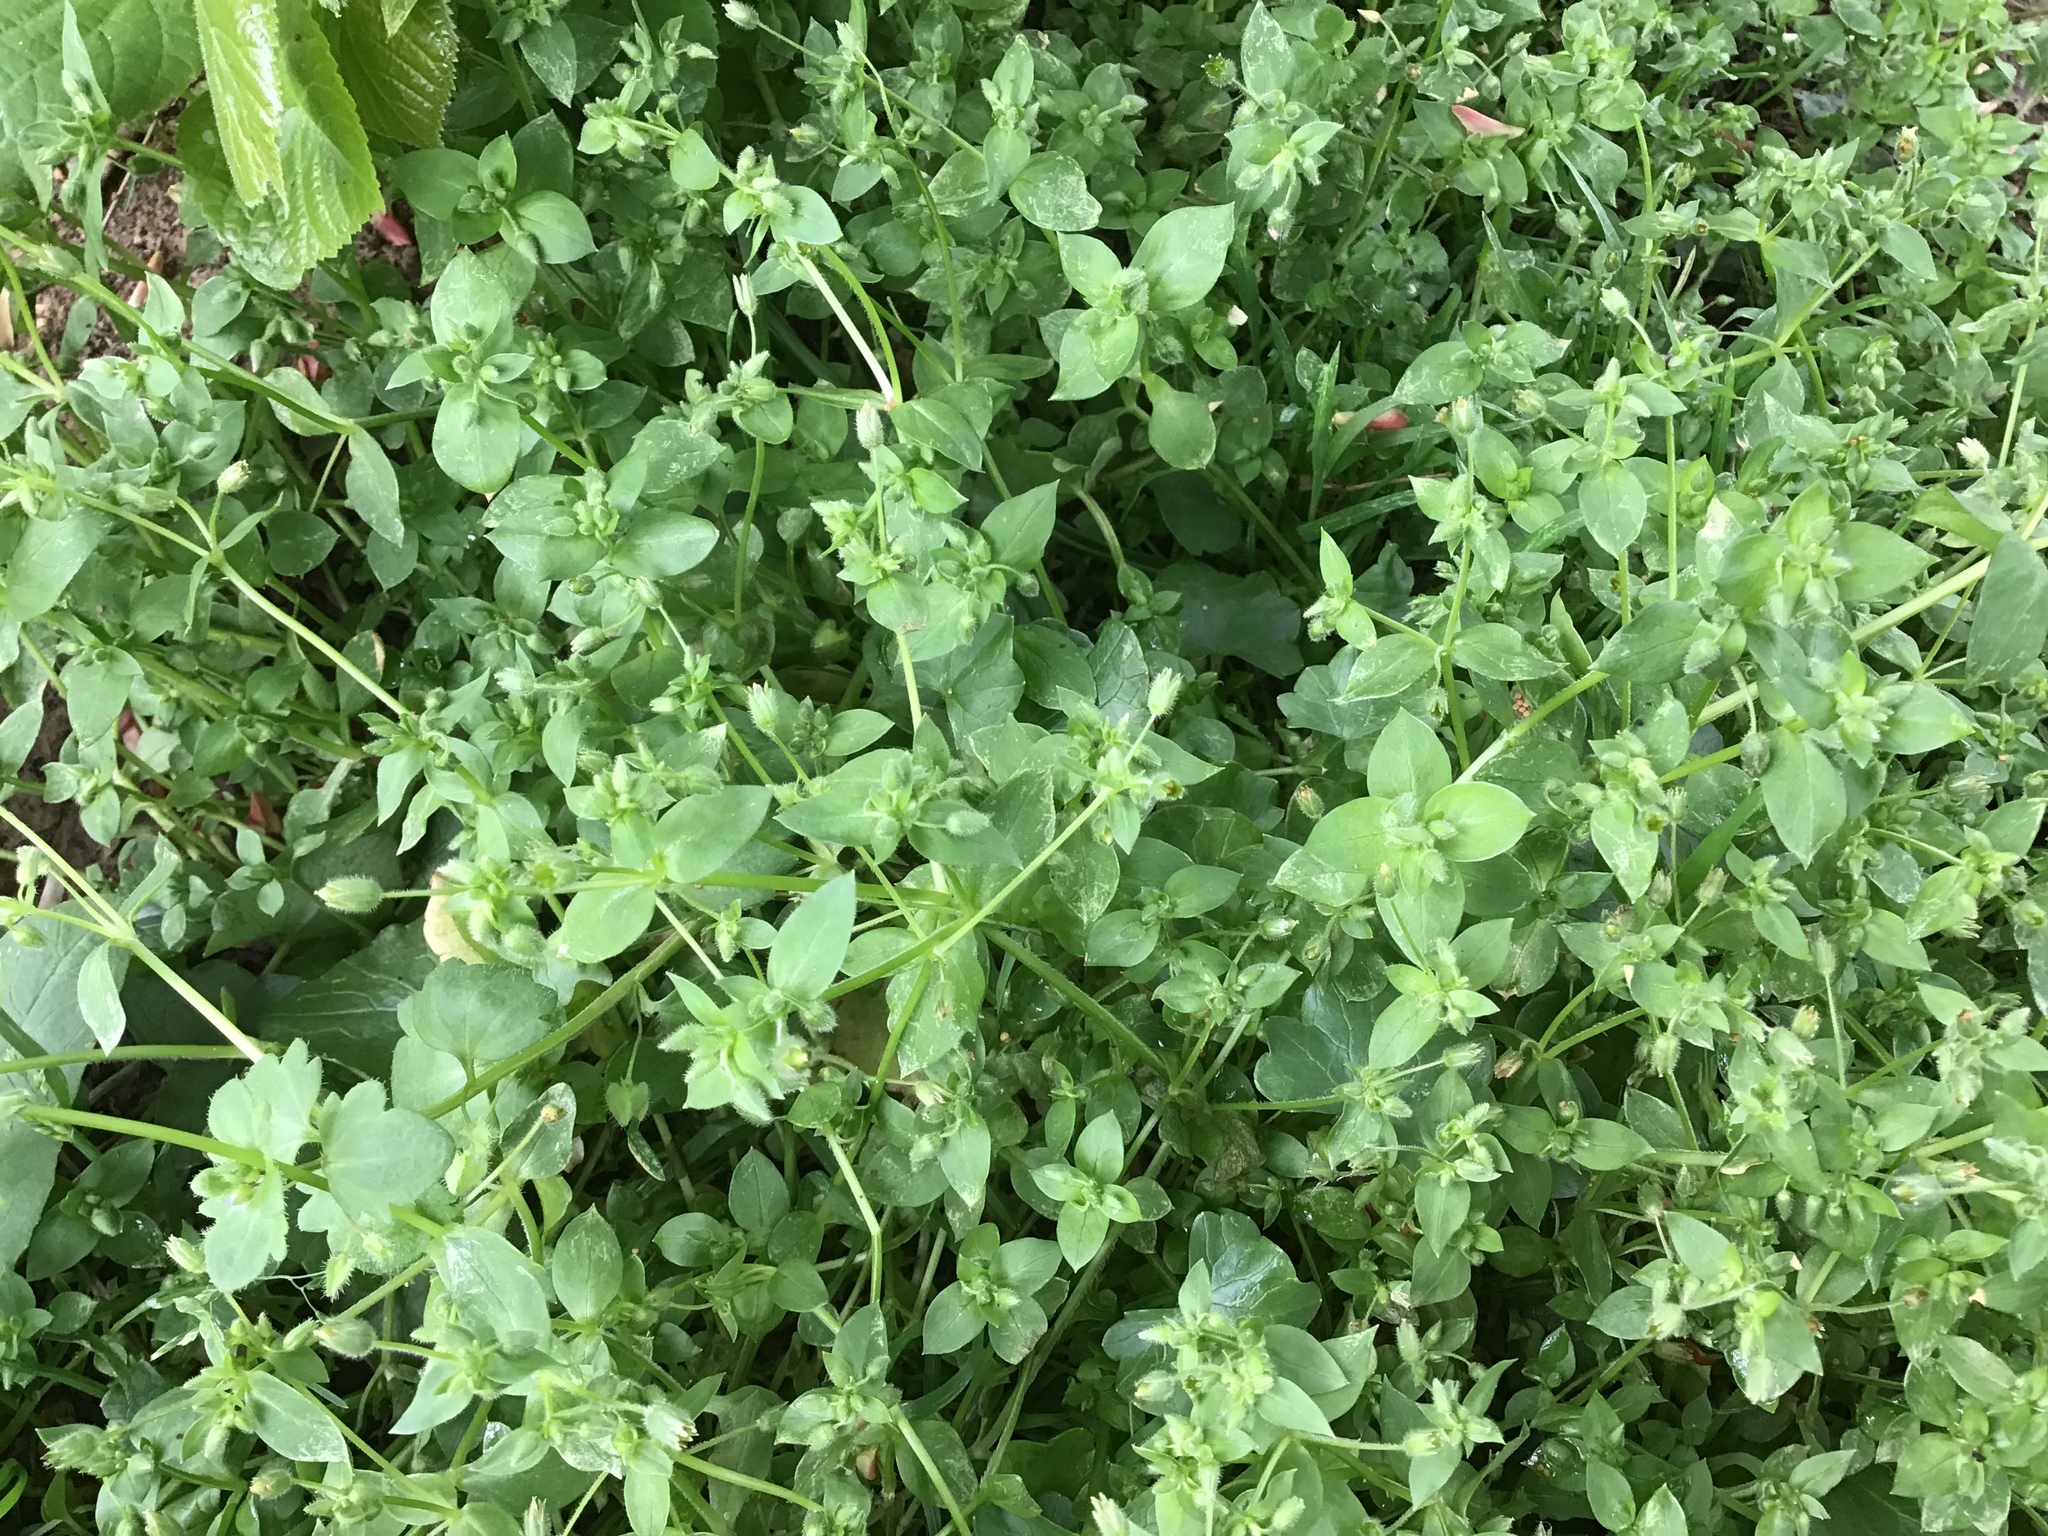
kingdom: Plantae
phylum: Tracheophyta
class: Magnoliopsida
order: Caryophyllales
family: Caryophyllaceae
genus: Stellaria
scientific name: Stellaria media
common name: Common chickweed
